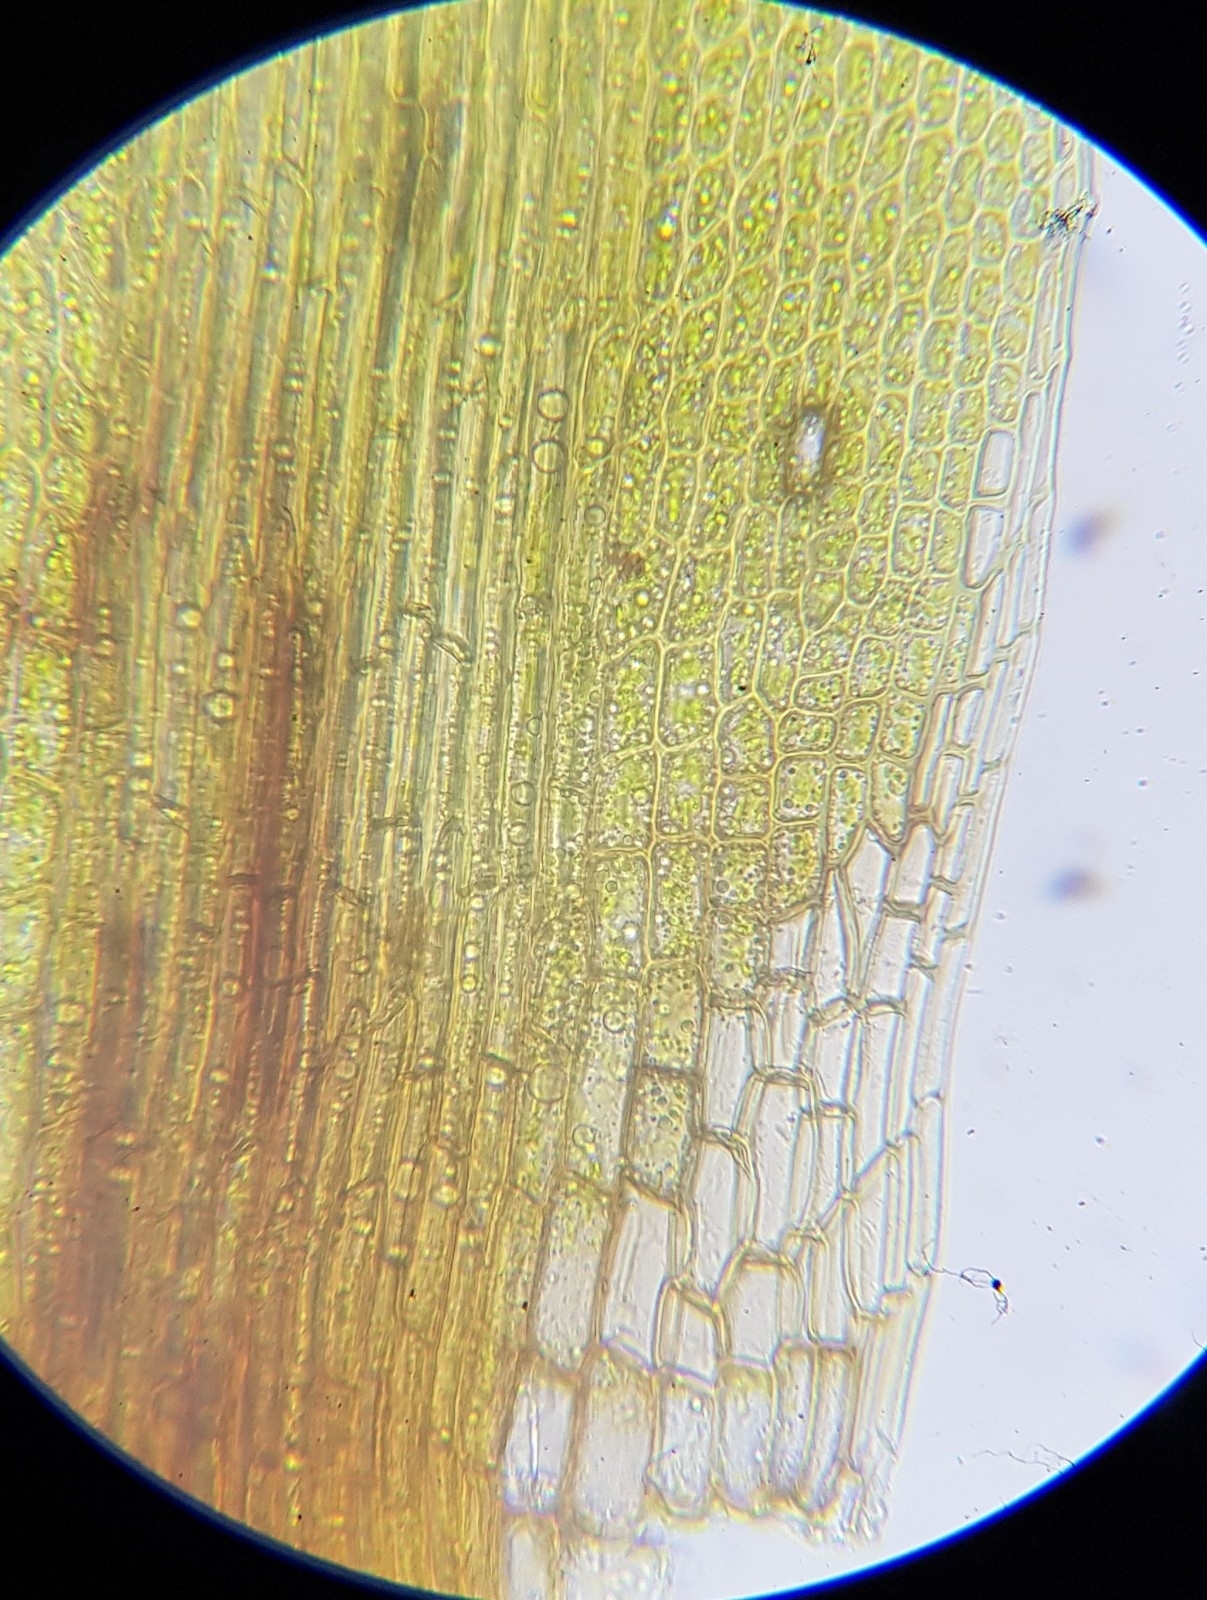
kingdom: Plantae
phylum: Bryophyta
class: Bryopsida
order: Dicranales
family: Leucobryaceae
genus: Campylopus
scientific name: Campylopus flexuosus
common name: Rusty swan-neck moss
